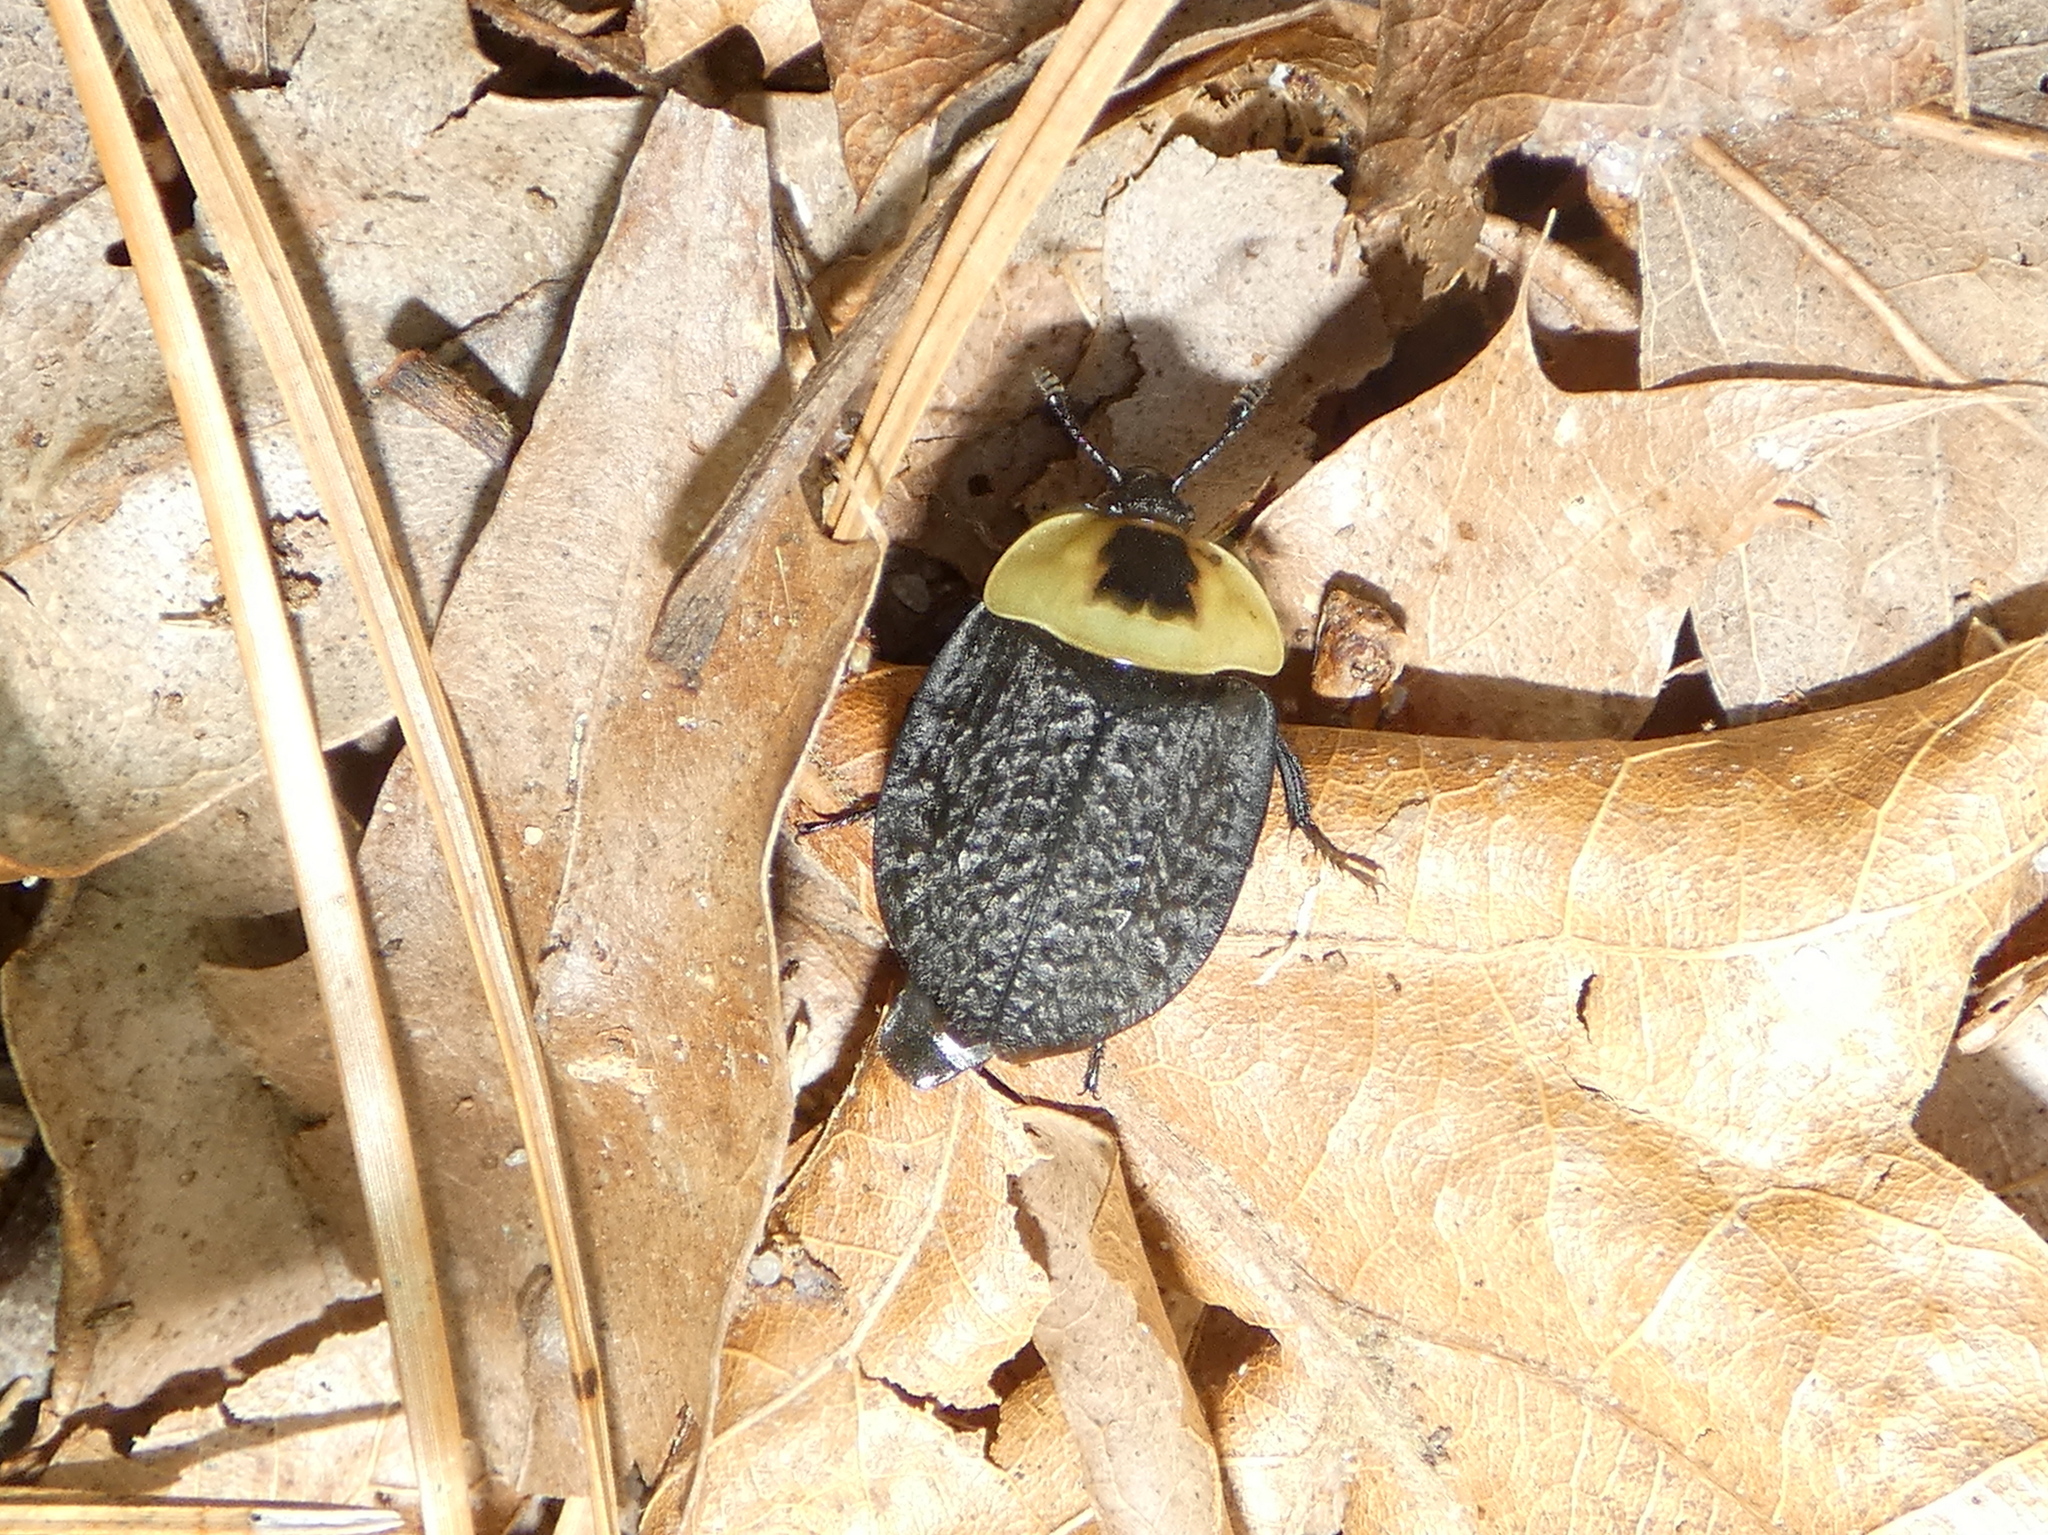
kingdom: Animalia
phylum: Arthropoda
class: Insecta
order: Coleoptera
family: Staphylinidae
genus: Necrophila
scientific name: Necrophila americana
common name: American carrion beetle
